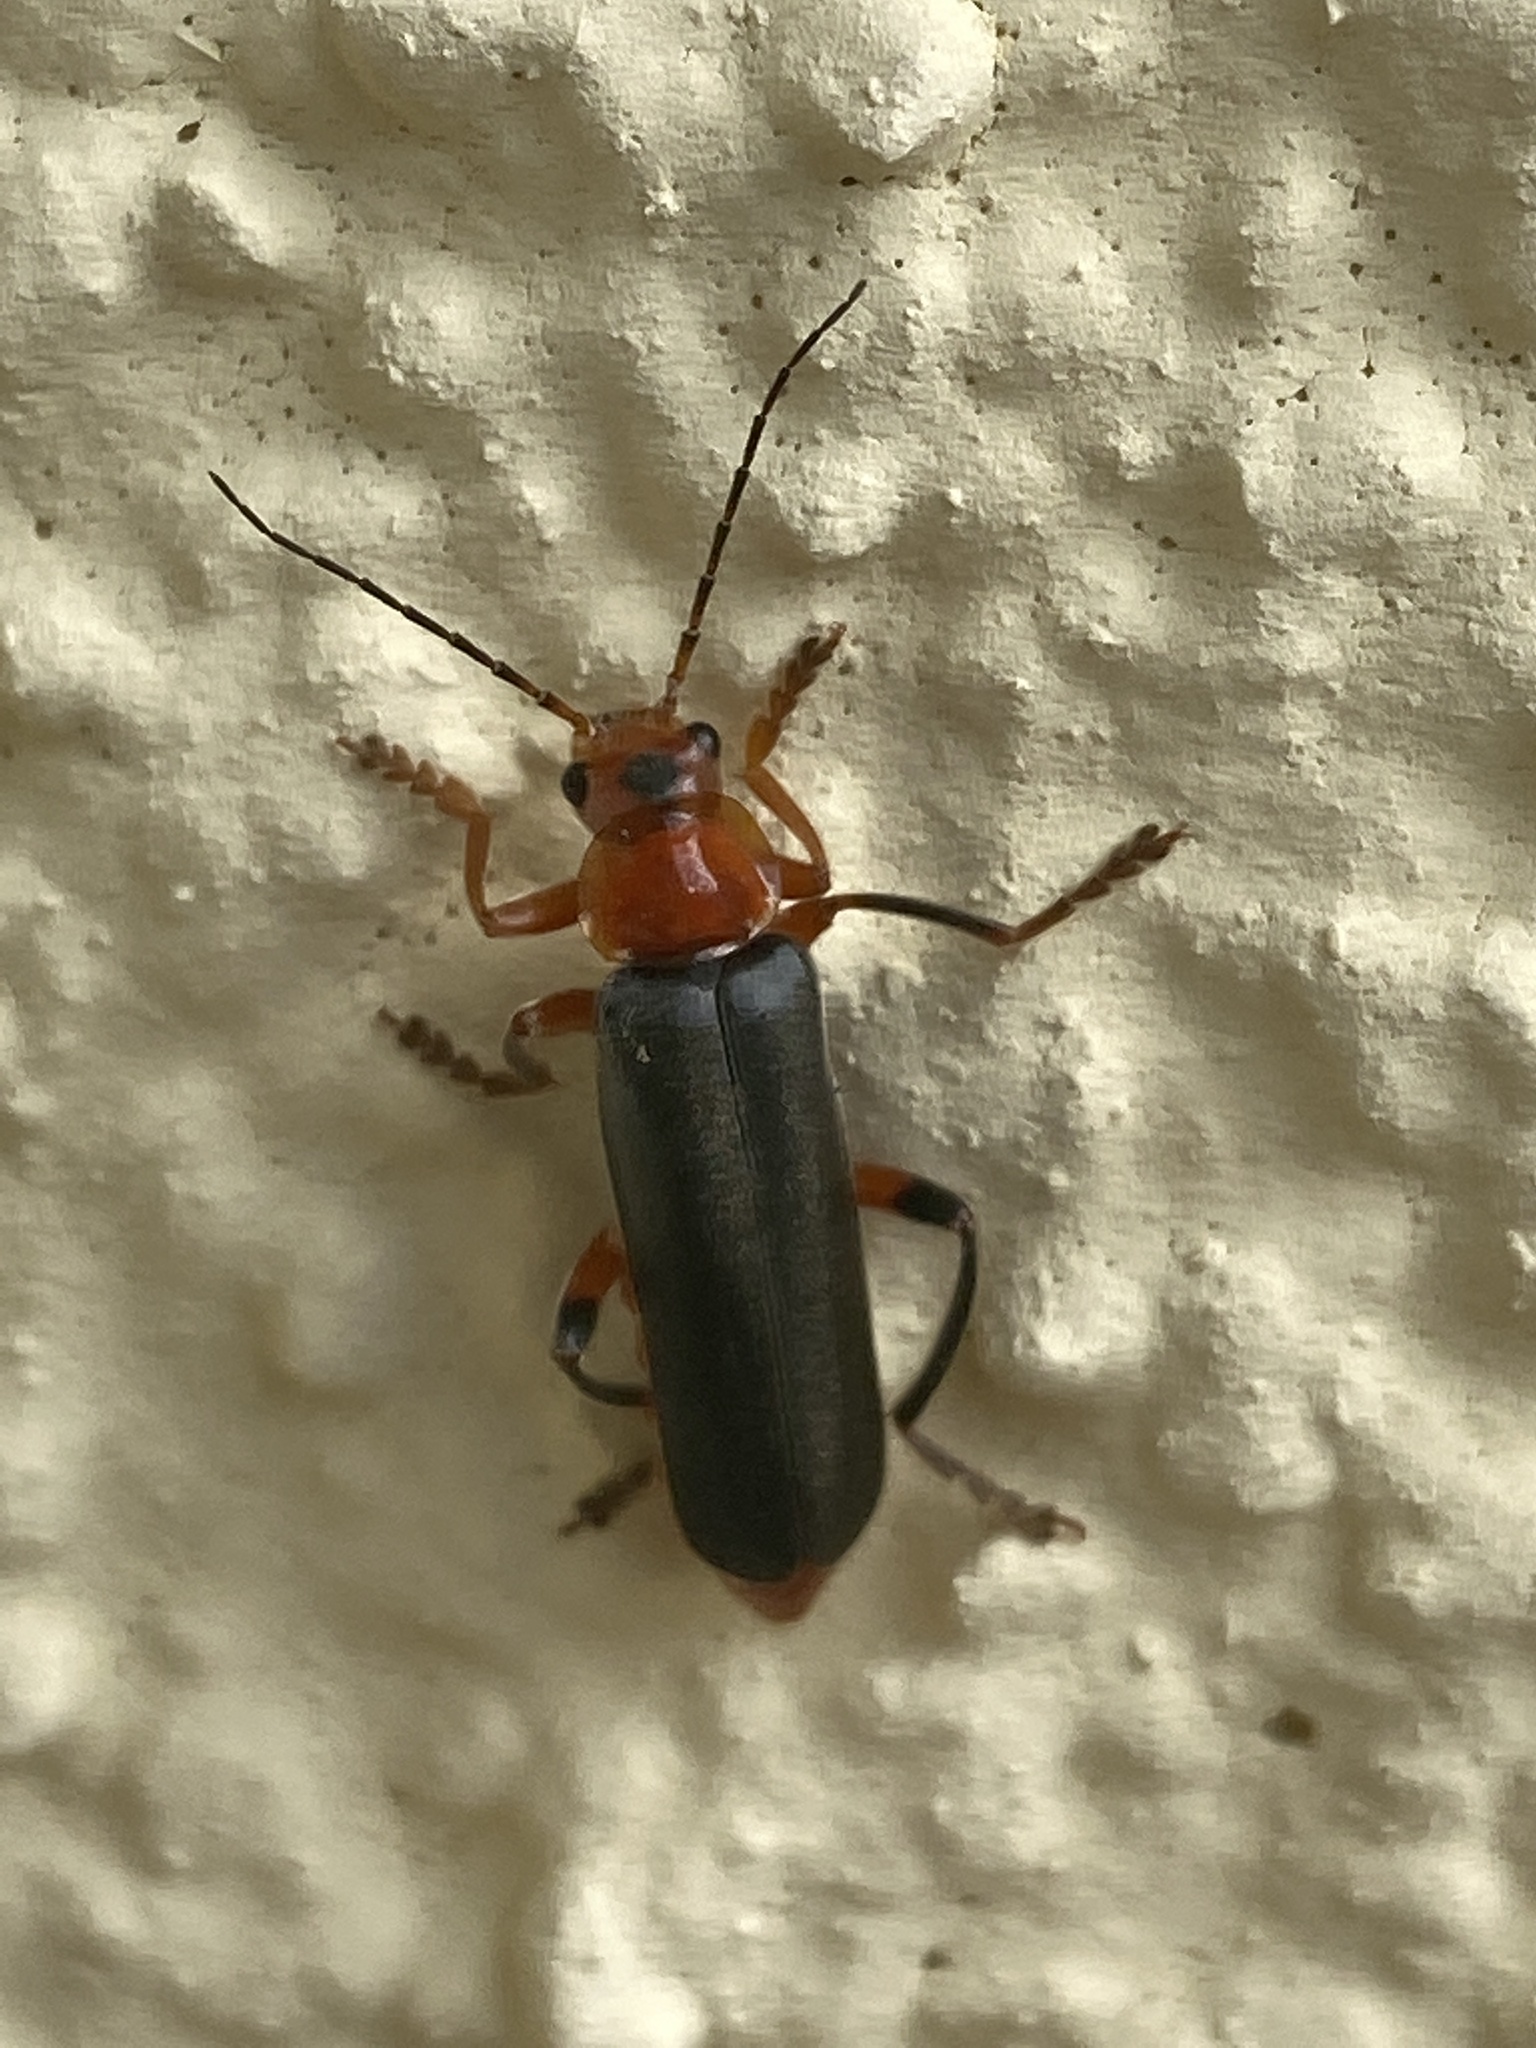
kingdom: Animalia
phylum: Arthropoda
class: Insecta
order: Coleoptera
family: Cantharidae
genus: Cantharis
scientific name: Cantharis livida
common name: Livid soldier beetle
